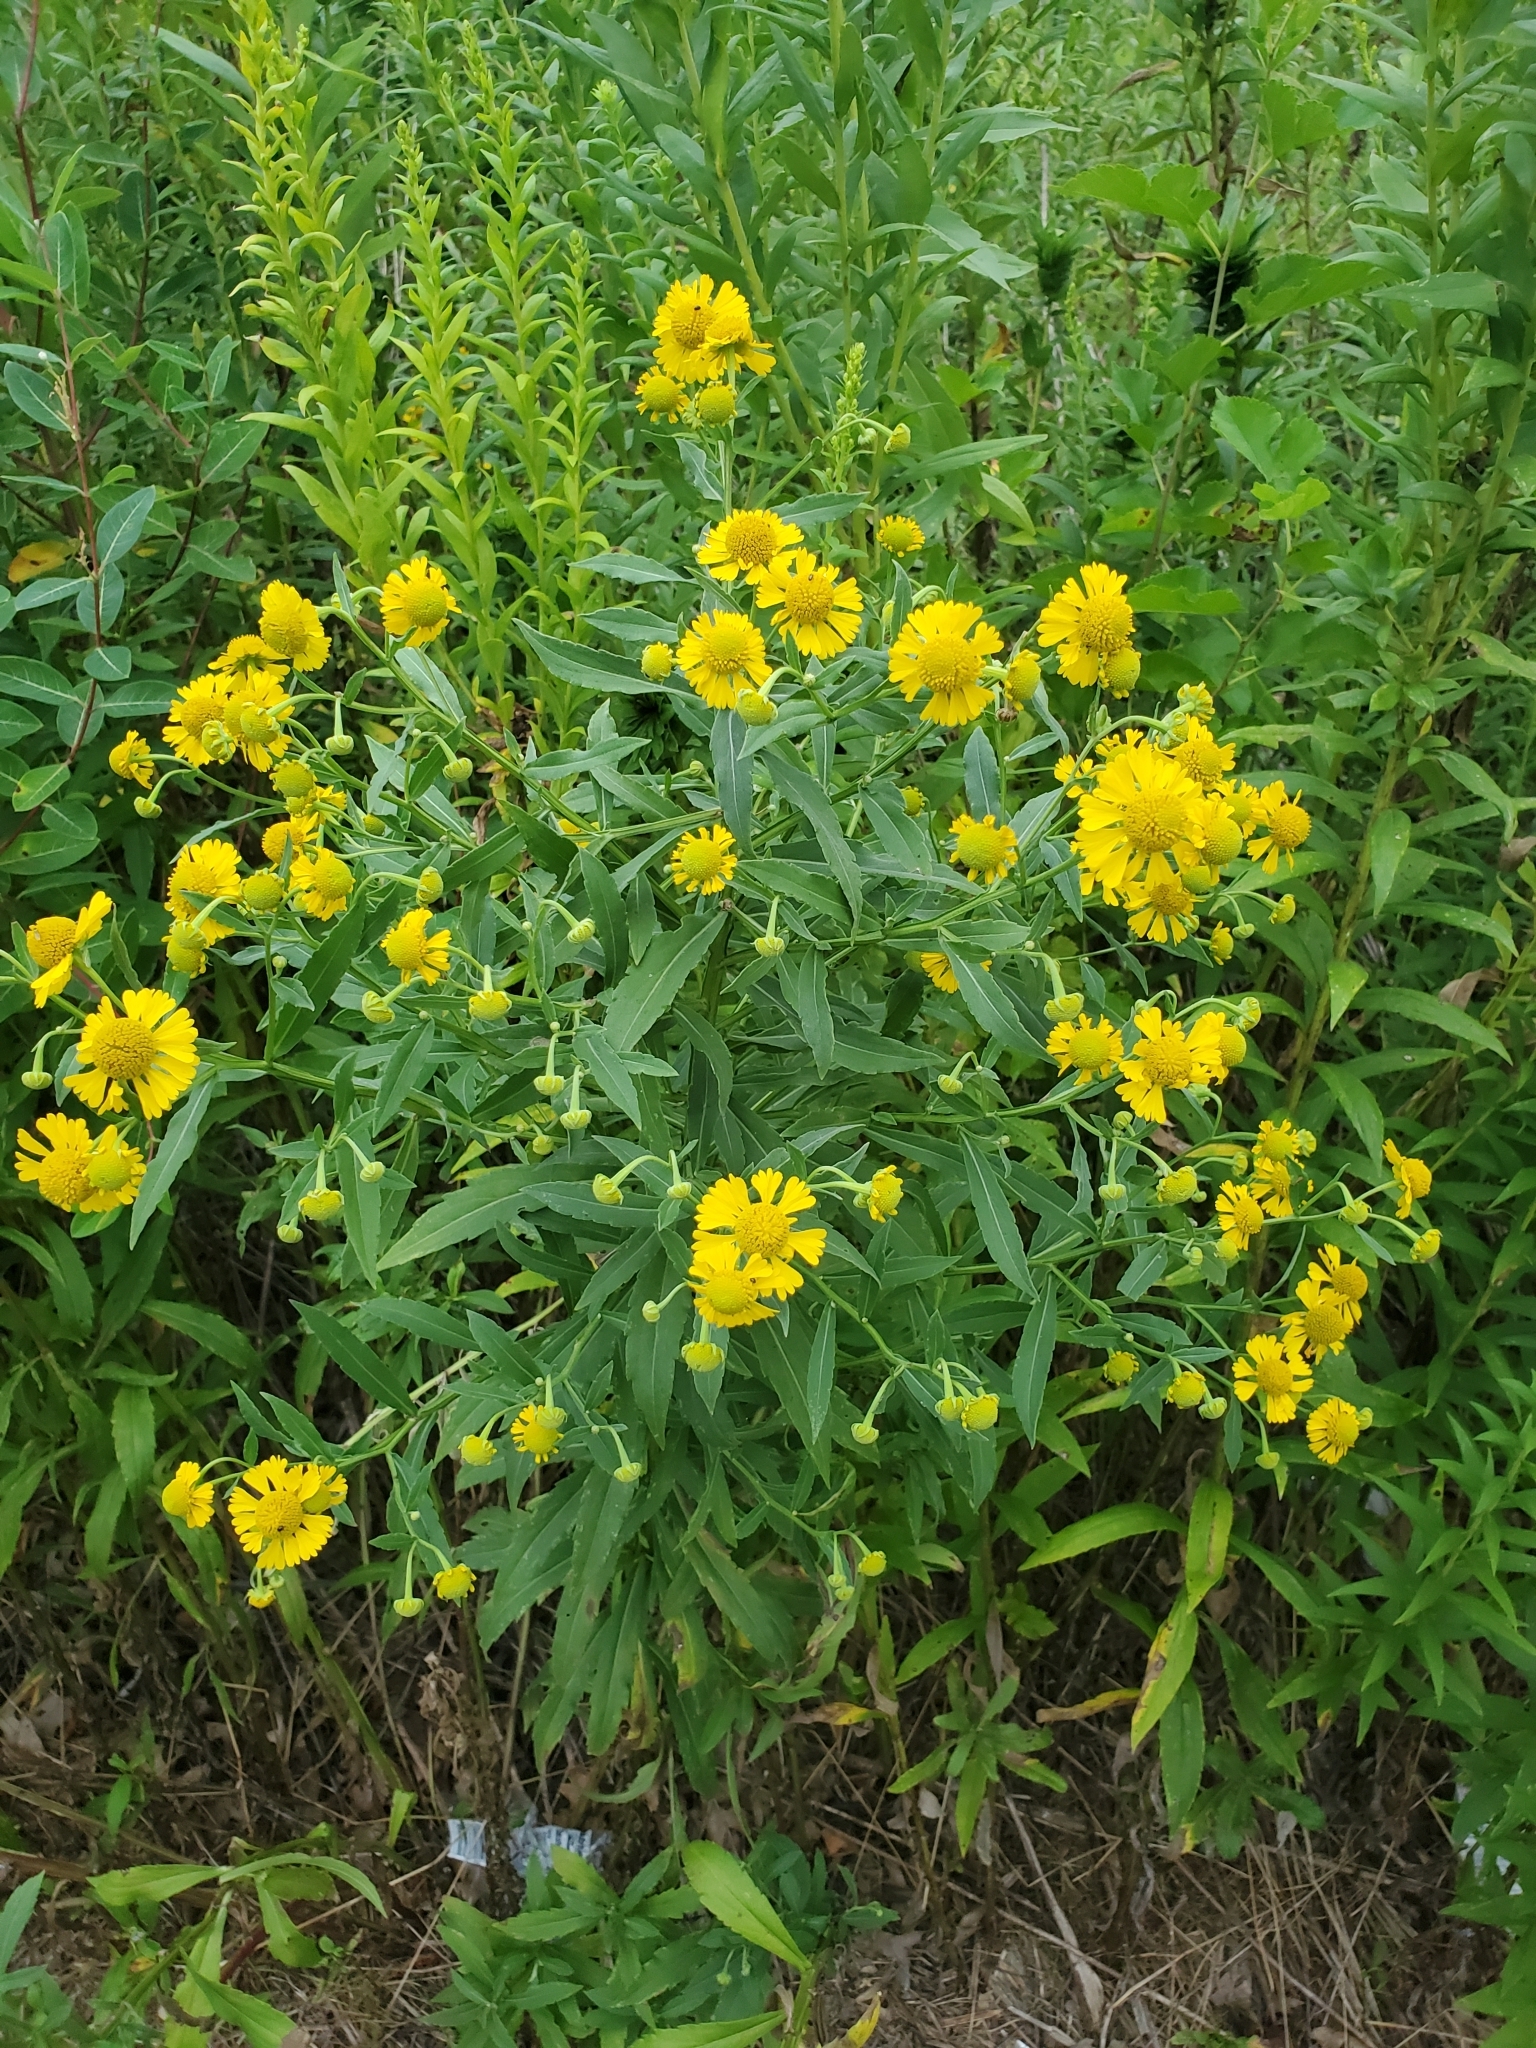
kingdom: Plantae
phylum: Tracheophyta
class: Magnoliopsida
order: Asterales
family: Asteraceae
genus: Helenium
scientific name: Helenium autumnale
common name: Sneezeweed
